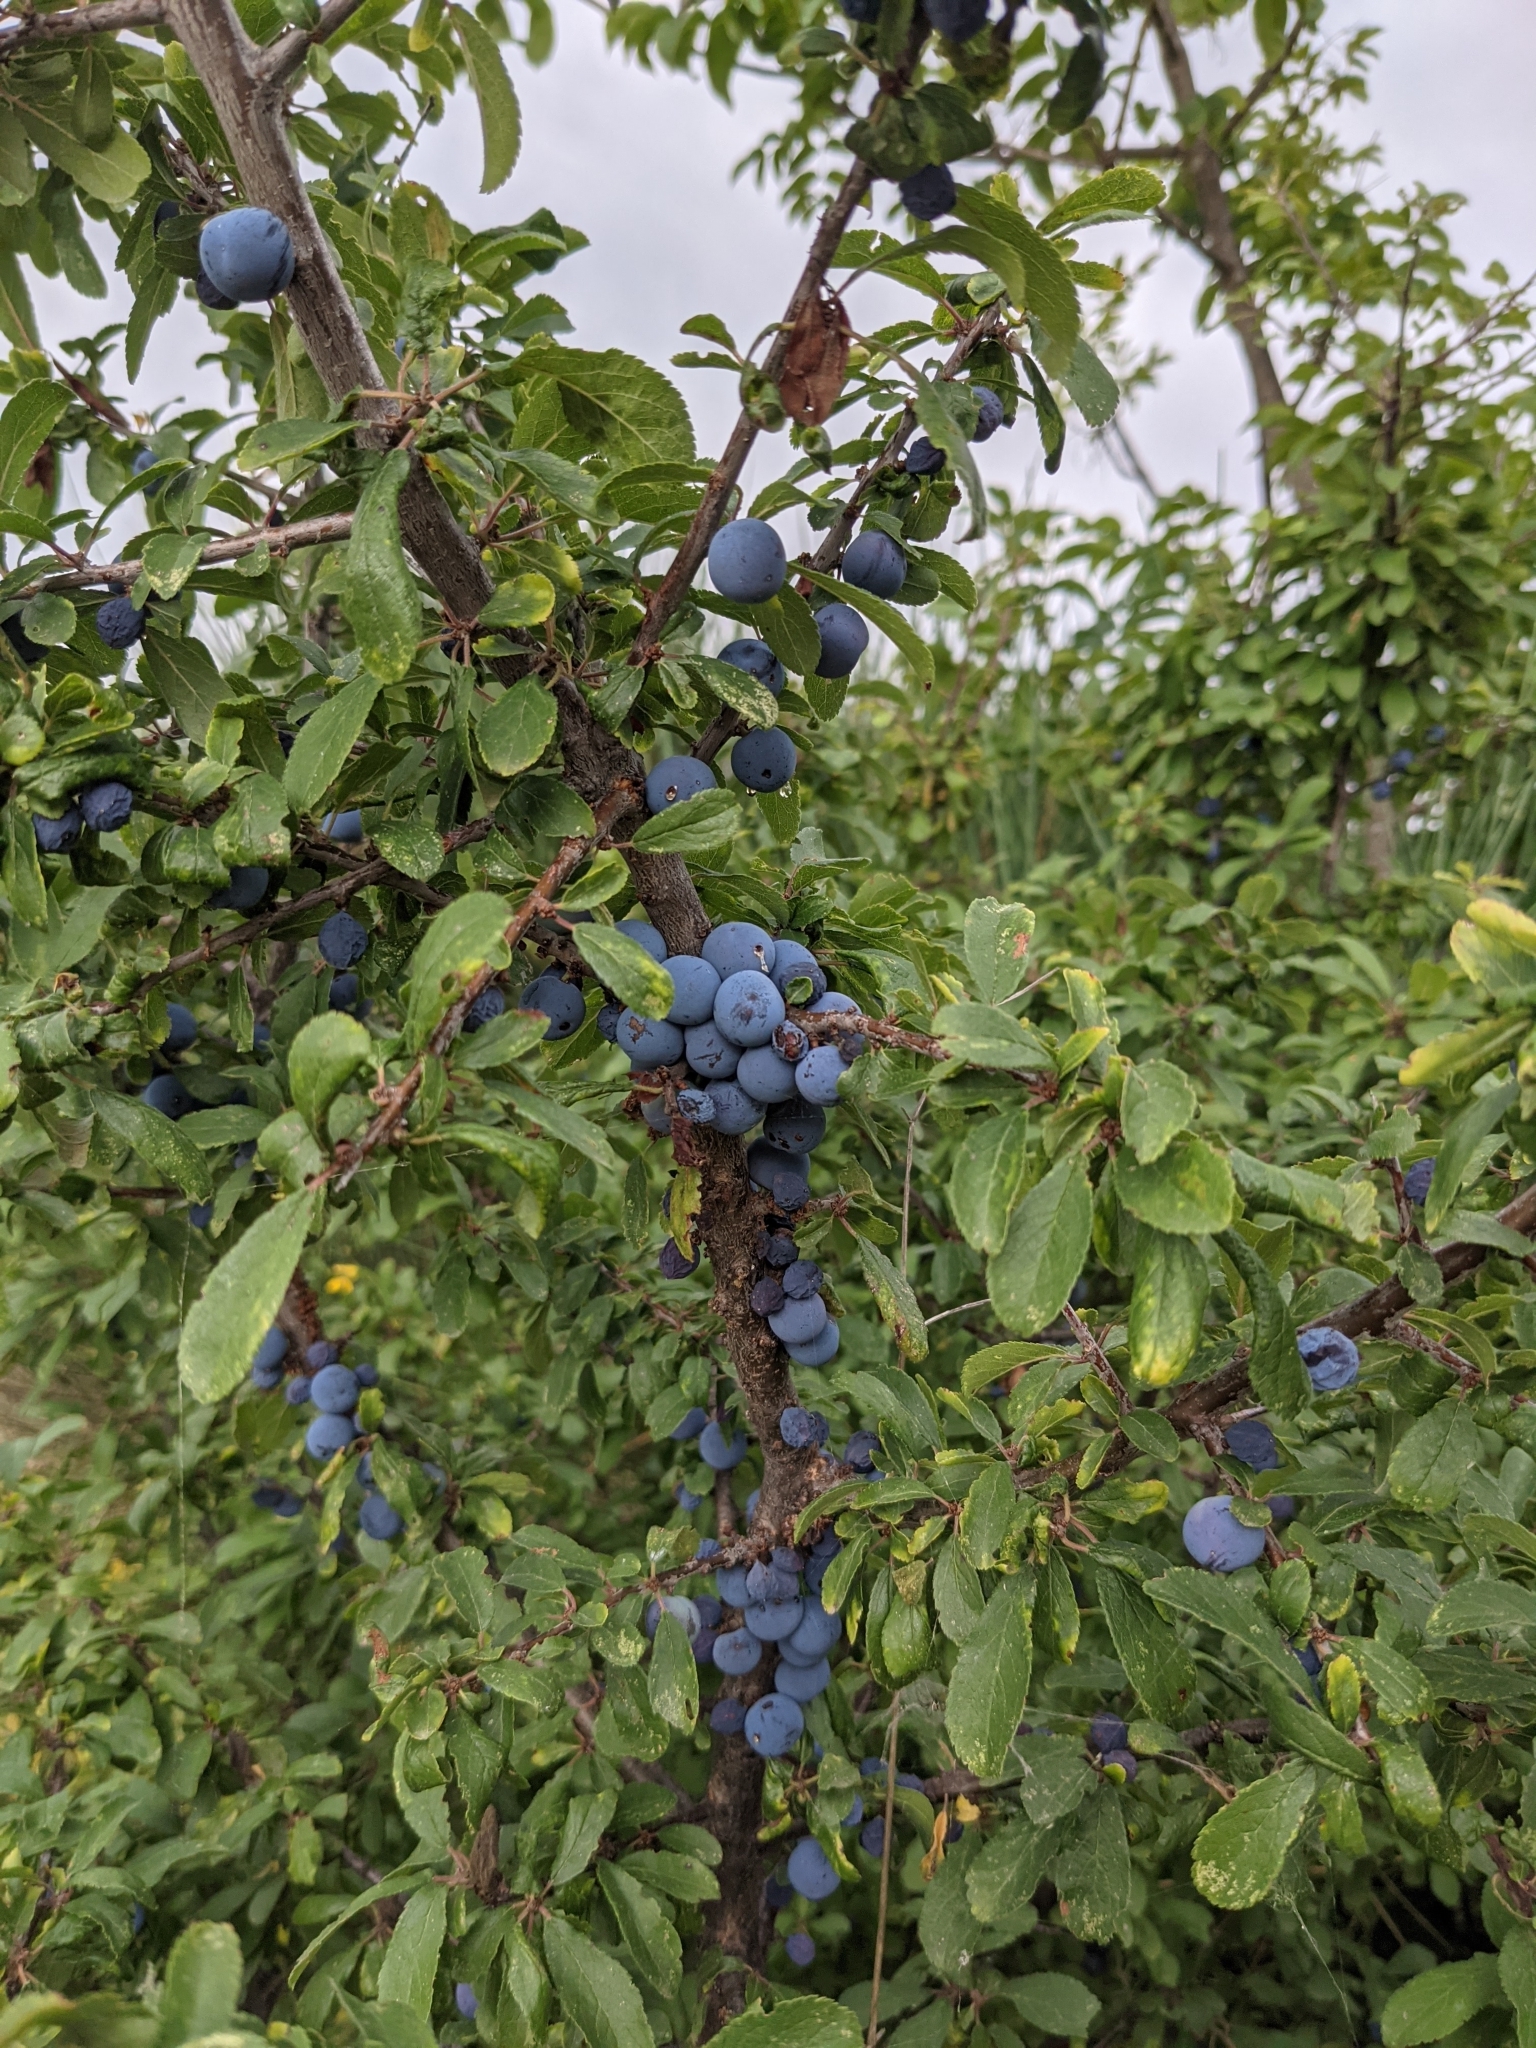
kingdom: Plantae
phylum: Tracheophyta
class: Magnoliopsida
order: Rosales
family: Rosaceae
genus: Prunus
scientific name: Prunus spinosa
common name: Blackthorn
